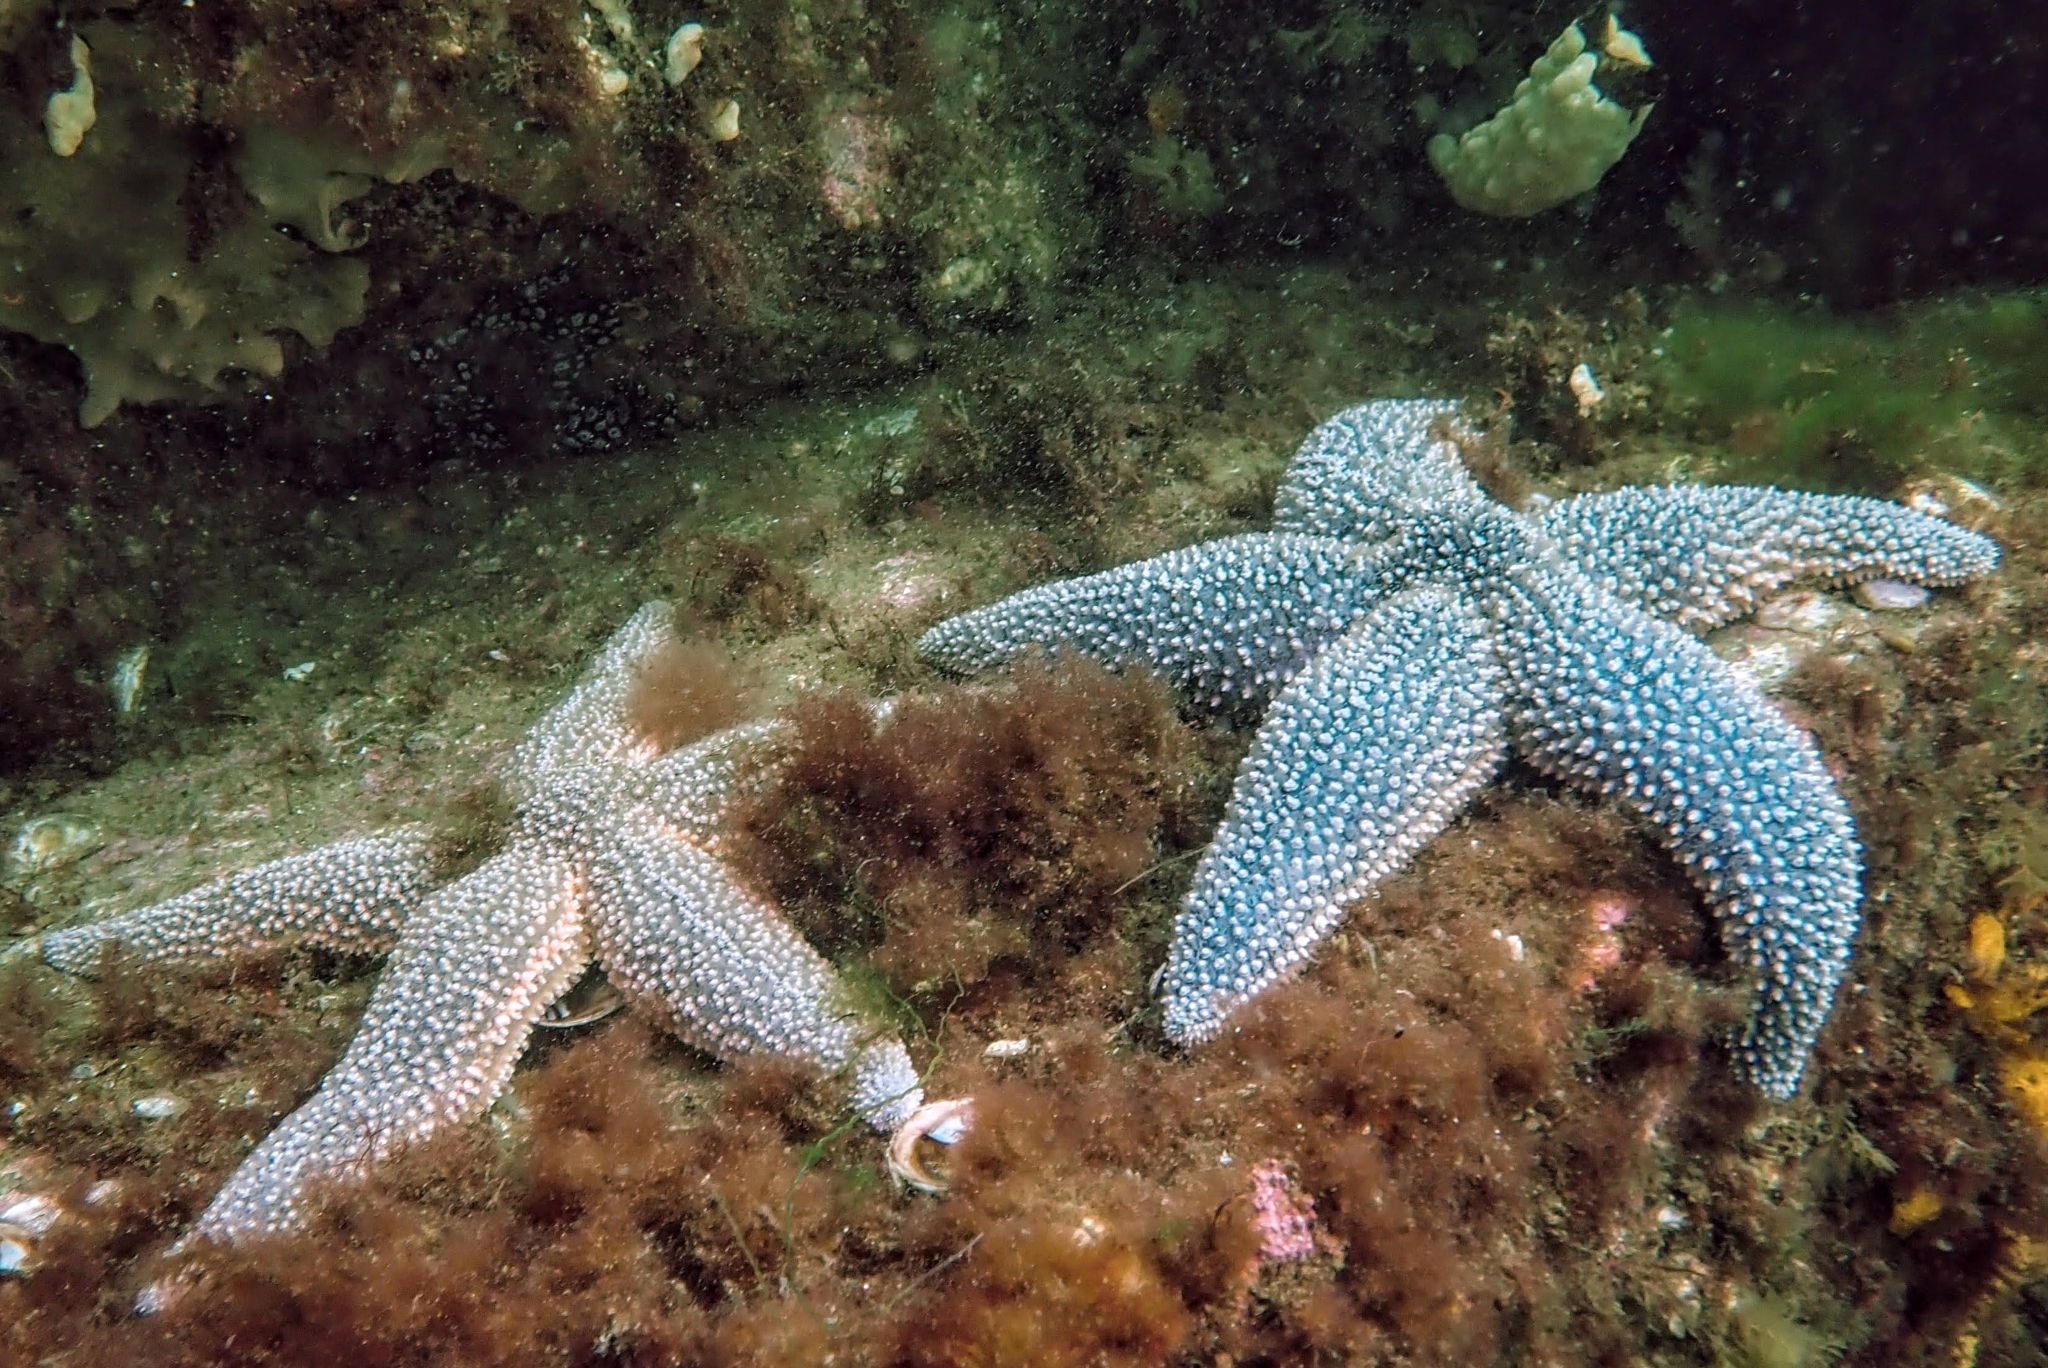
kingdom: Animalia
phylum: Echinodermata
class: Asteroidea
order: Forcipulatida
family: Asteriidae
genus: Asterias
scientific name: Asterias forbesi
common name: Forbes's sea star
